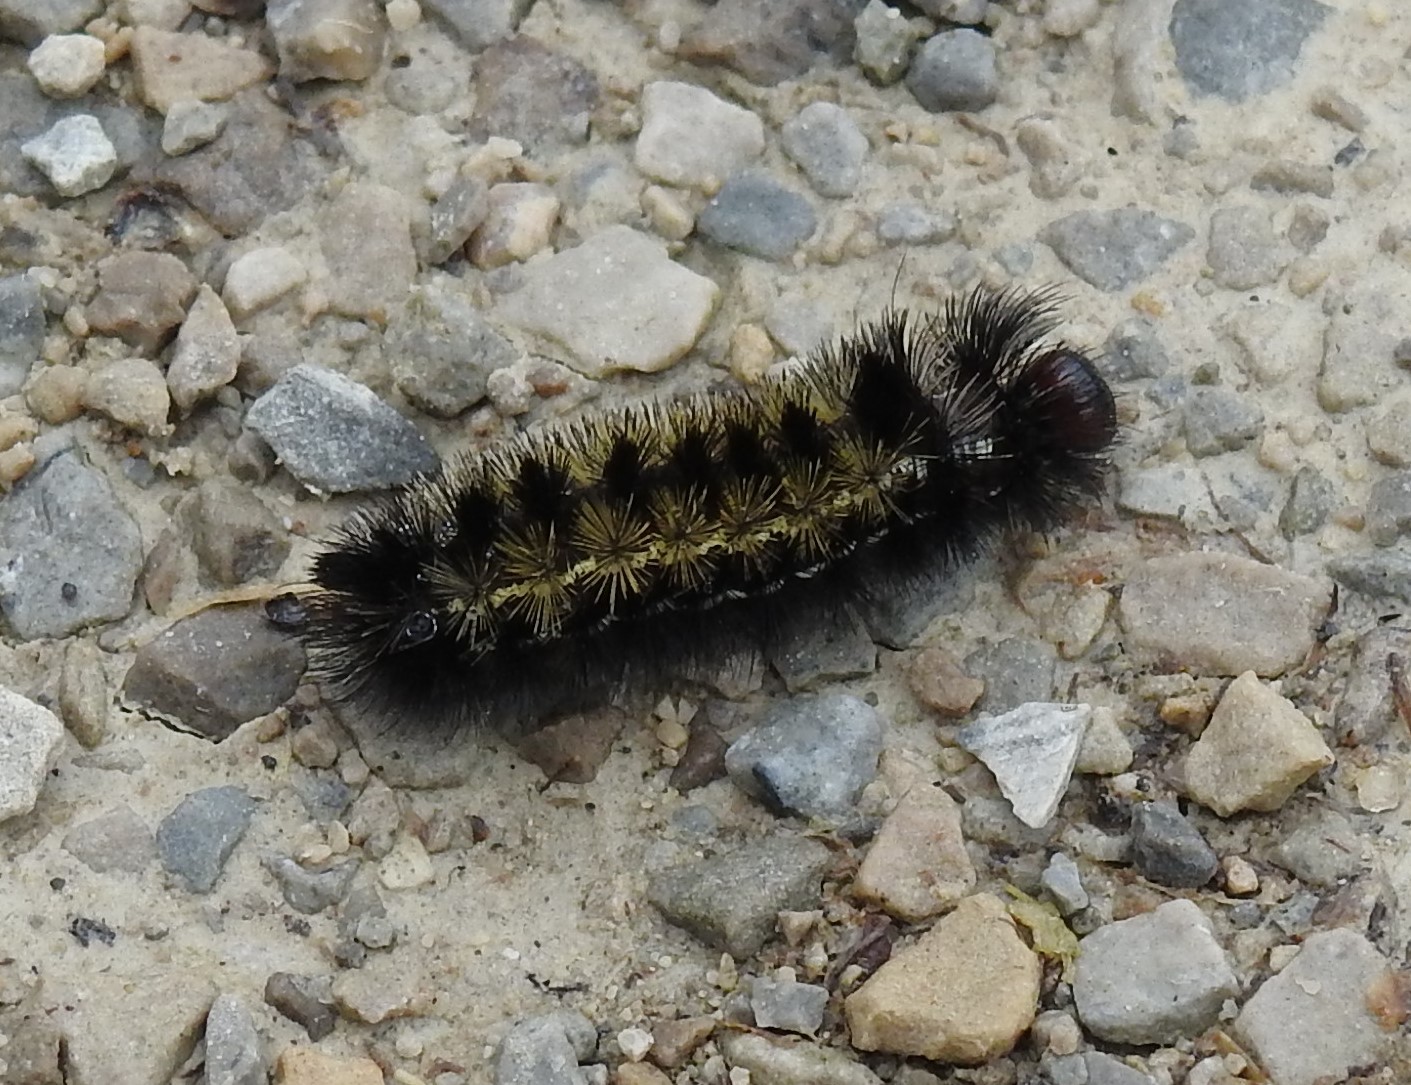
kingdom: Animalia
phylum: Arthropoda
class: Insecta
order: Lepidoptera
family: Erebidae
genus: Ctenucha
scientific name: Ctenucha virginica
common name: Virginia ctenucha moth
